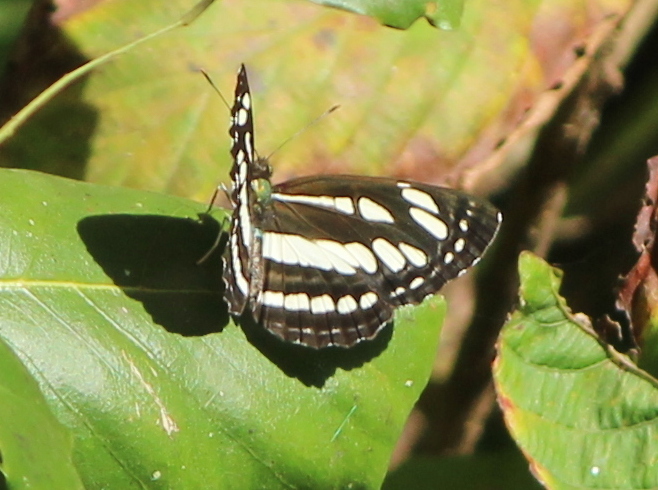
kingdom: Animalia
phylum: Arthropoda
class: Insecta
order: Lepidoptera
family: Nymphalidae
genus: Neptis
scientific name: Neptis hylas
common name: Common sailer
